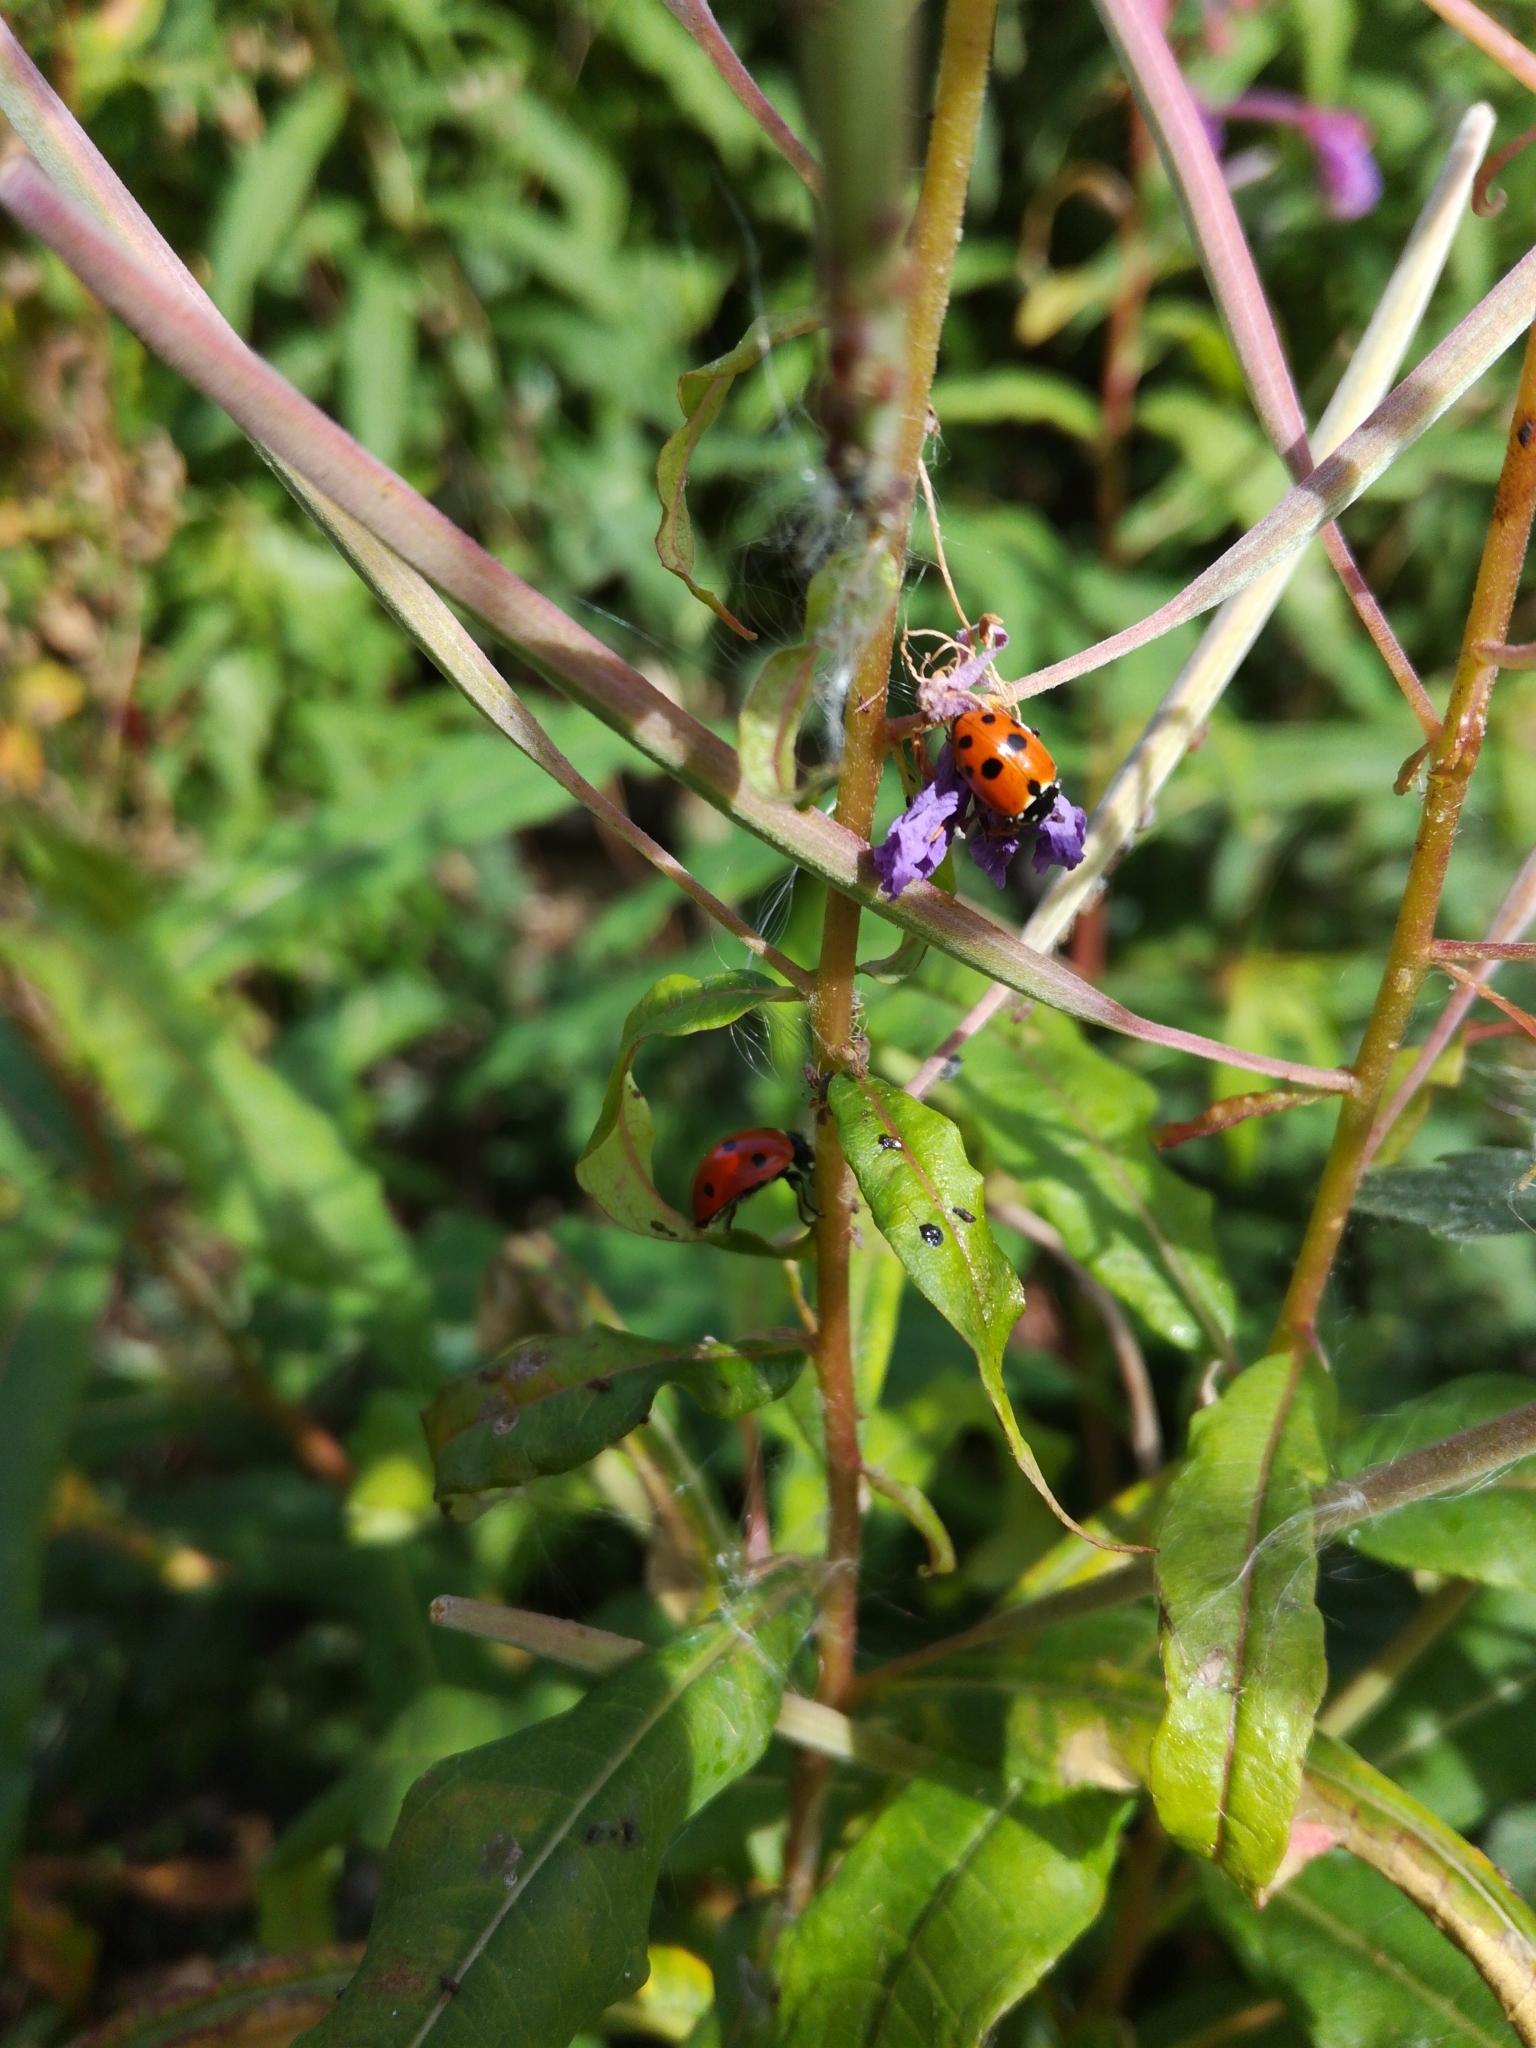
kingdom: Animalia
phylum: Arthropoda
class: Insecta
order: Coleoptera
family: Coccinellidae
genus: Hippodamia
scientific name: Hippodamia variegata
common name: Ladybird beetle
